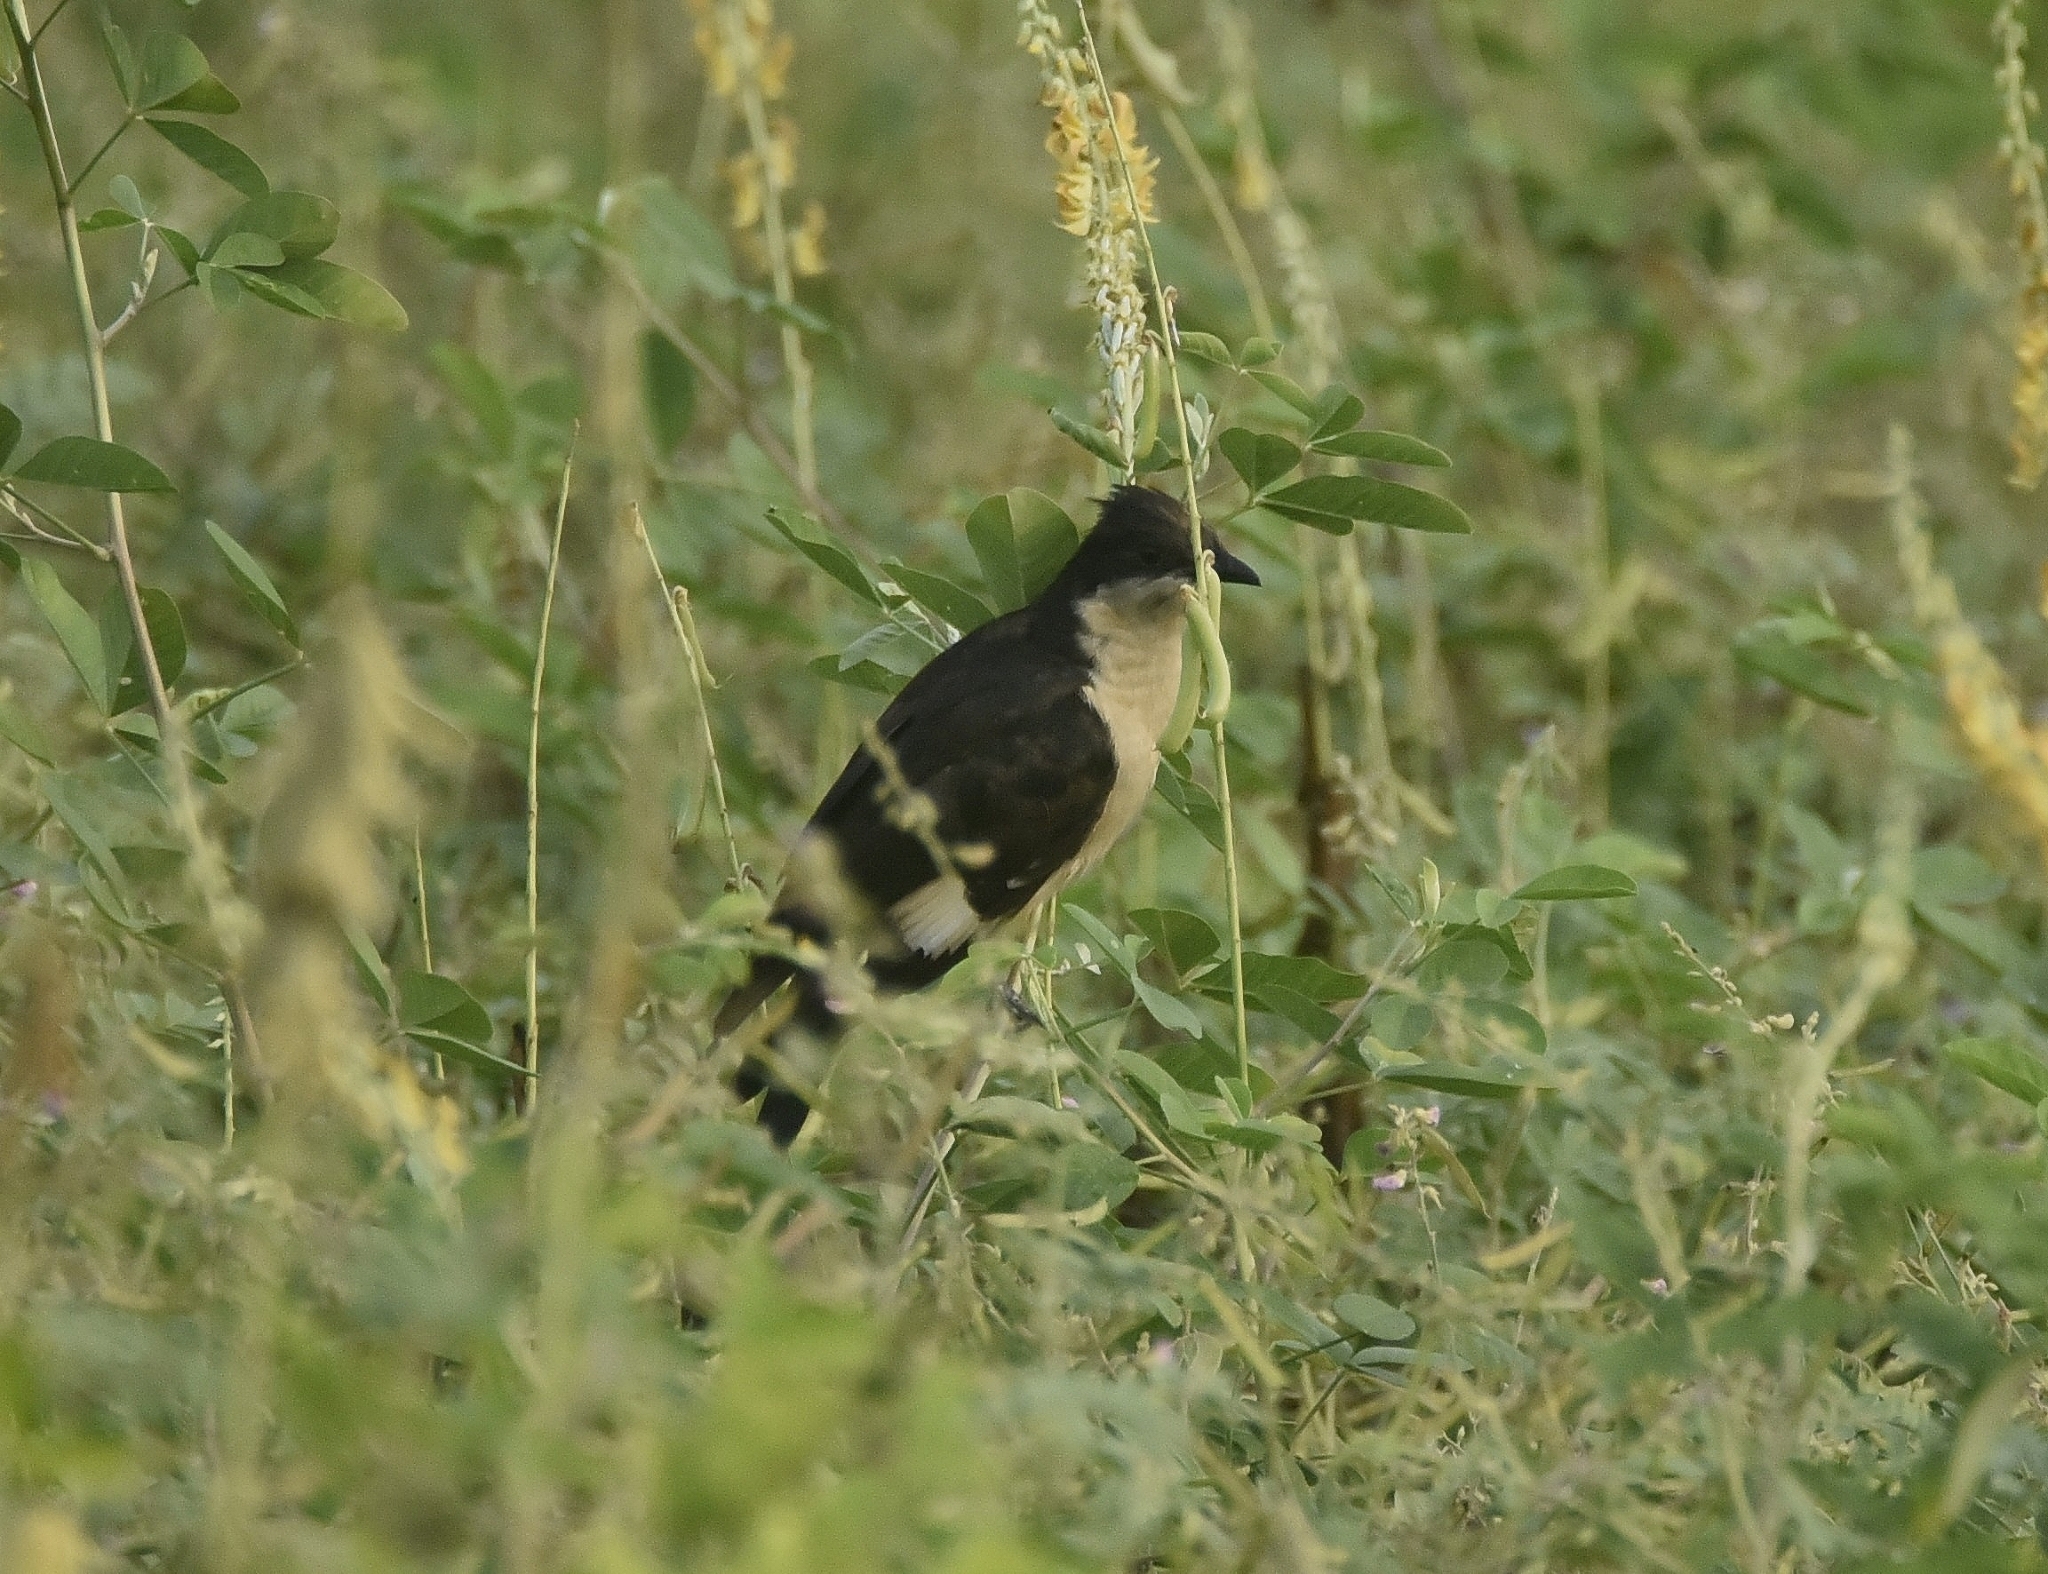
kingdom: Animalia
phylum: Chordata
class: Aves
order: Cuculiformes
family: Cuculidae
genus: Clamator
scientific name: Clamator jacobinus
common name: Jacobin cuckoo
